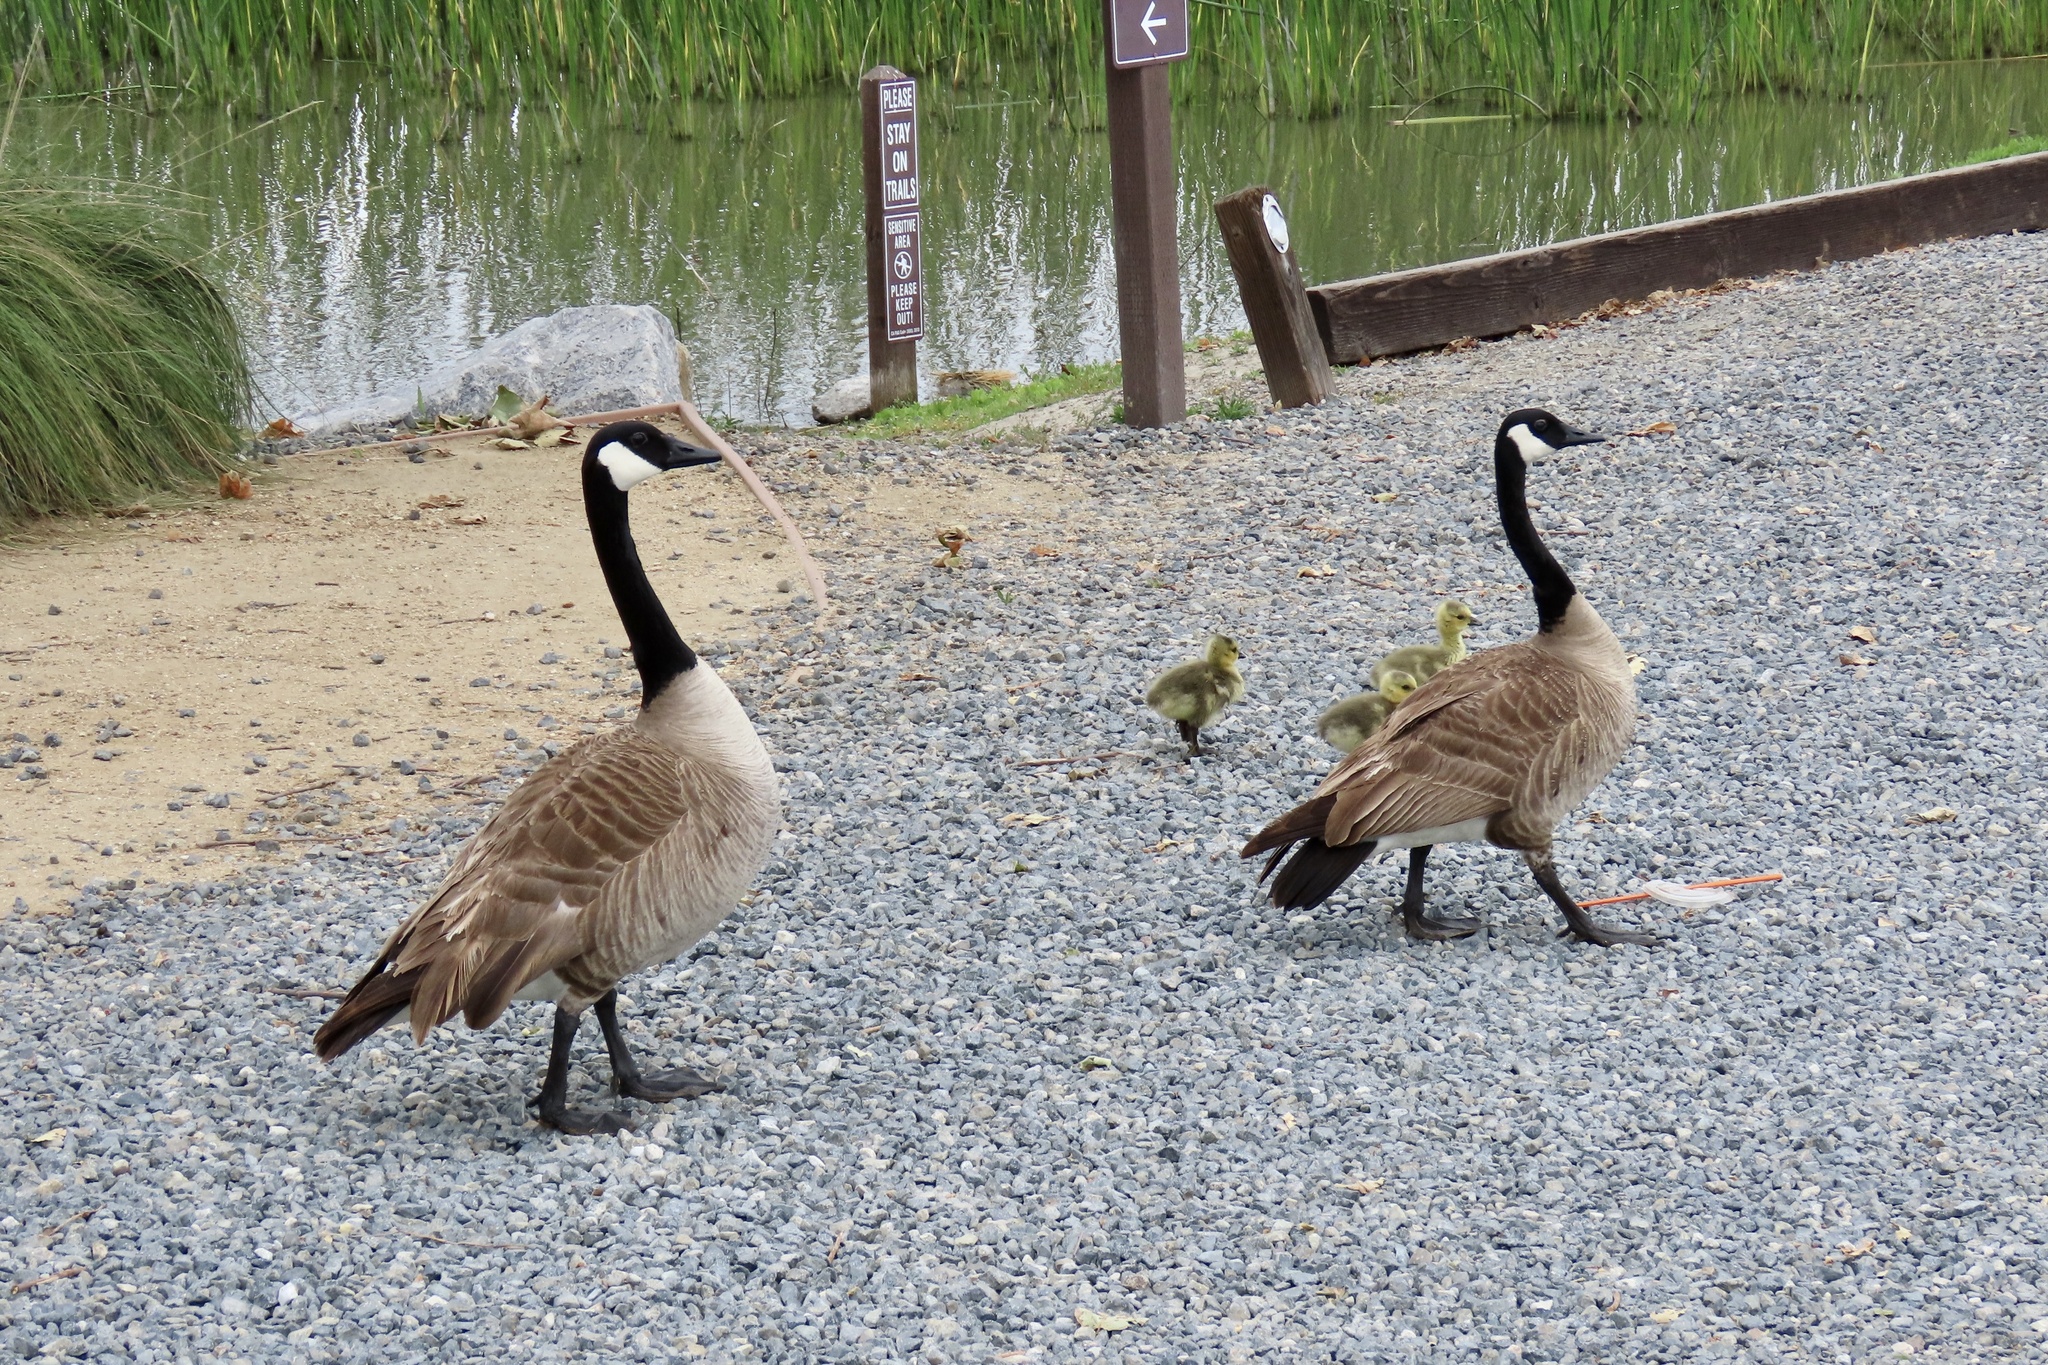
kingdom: Animalia
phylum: Chordata
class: Aves
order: Anseriformes
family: Anatidae
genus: Branta
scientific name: Branta canadensis
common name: Canada goose
